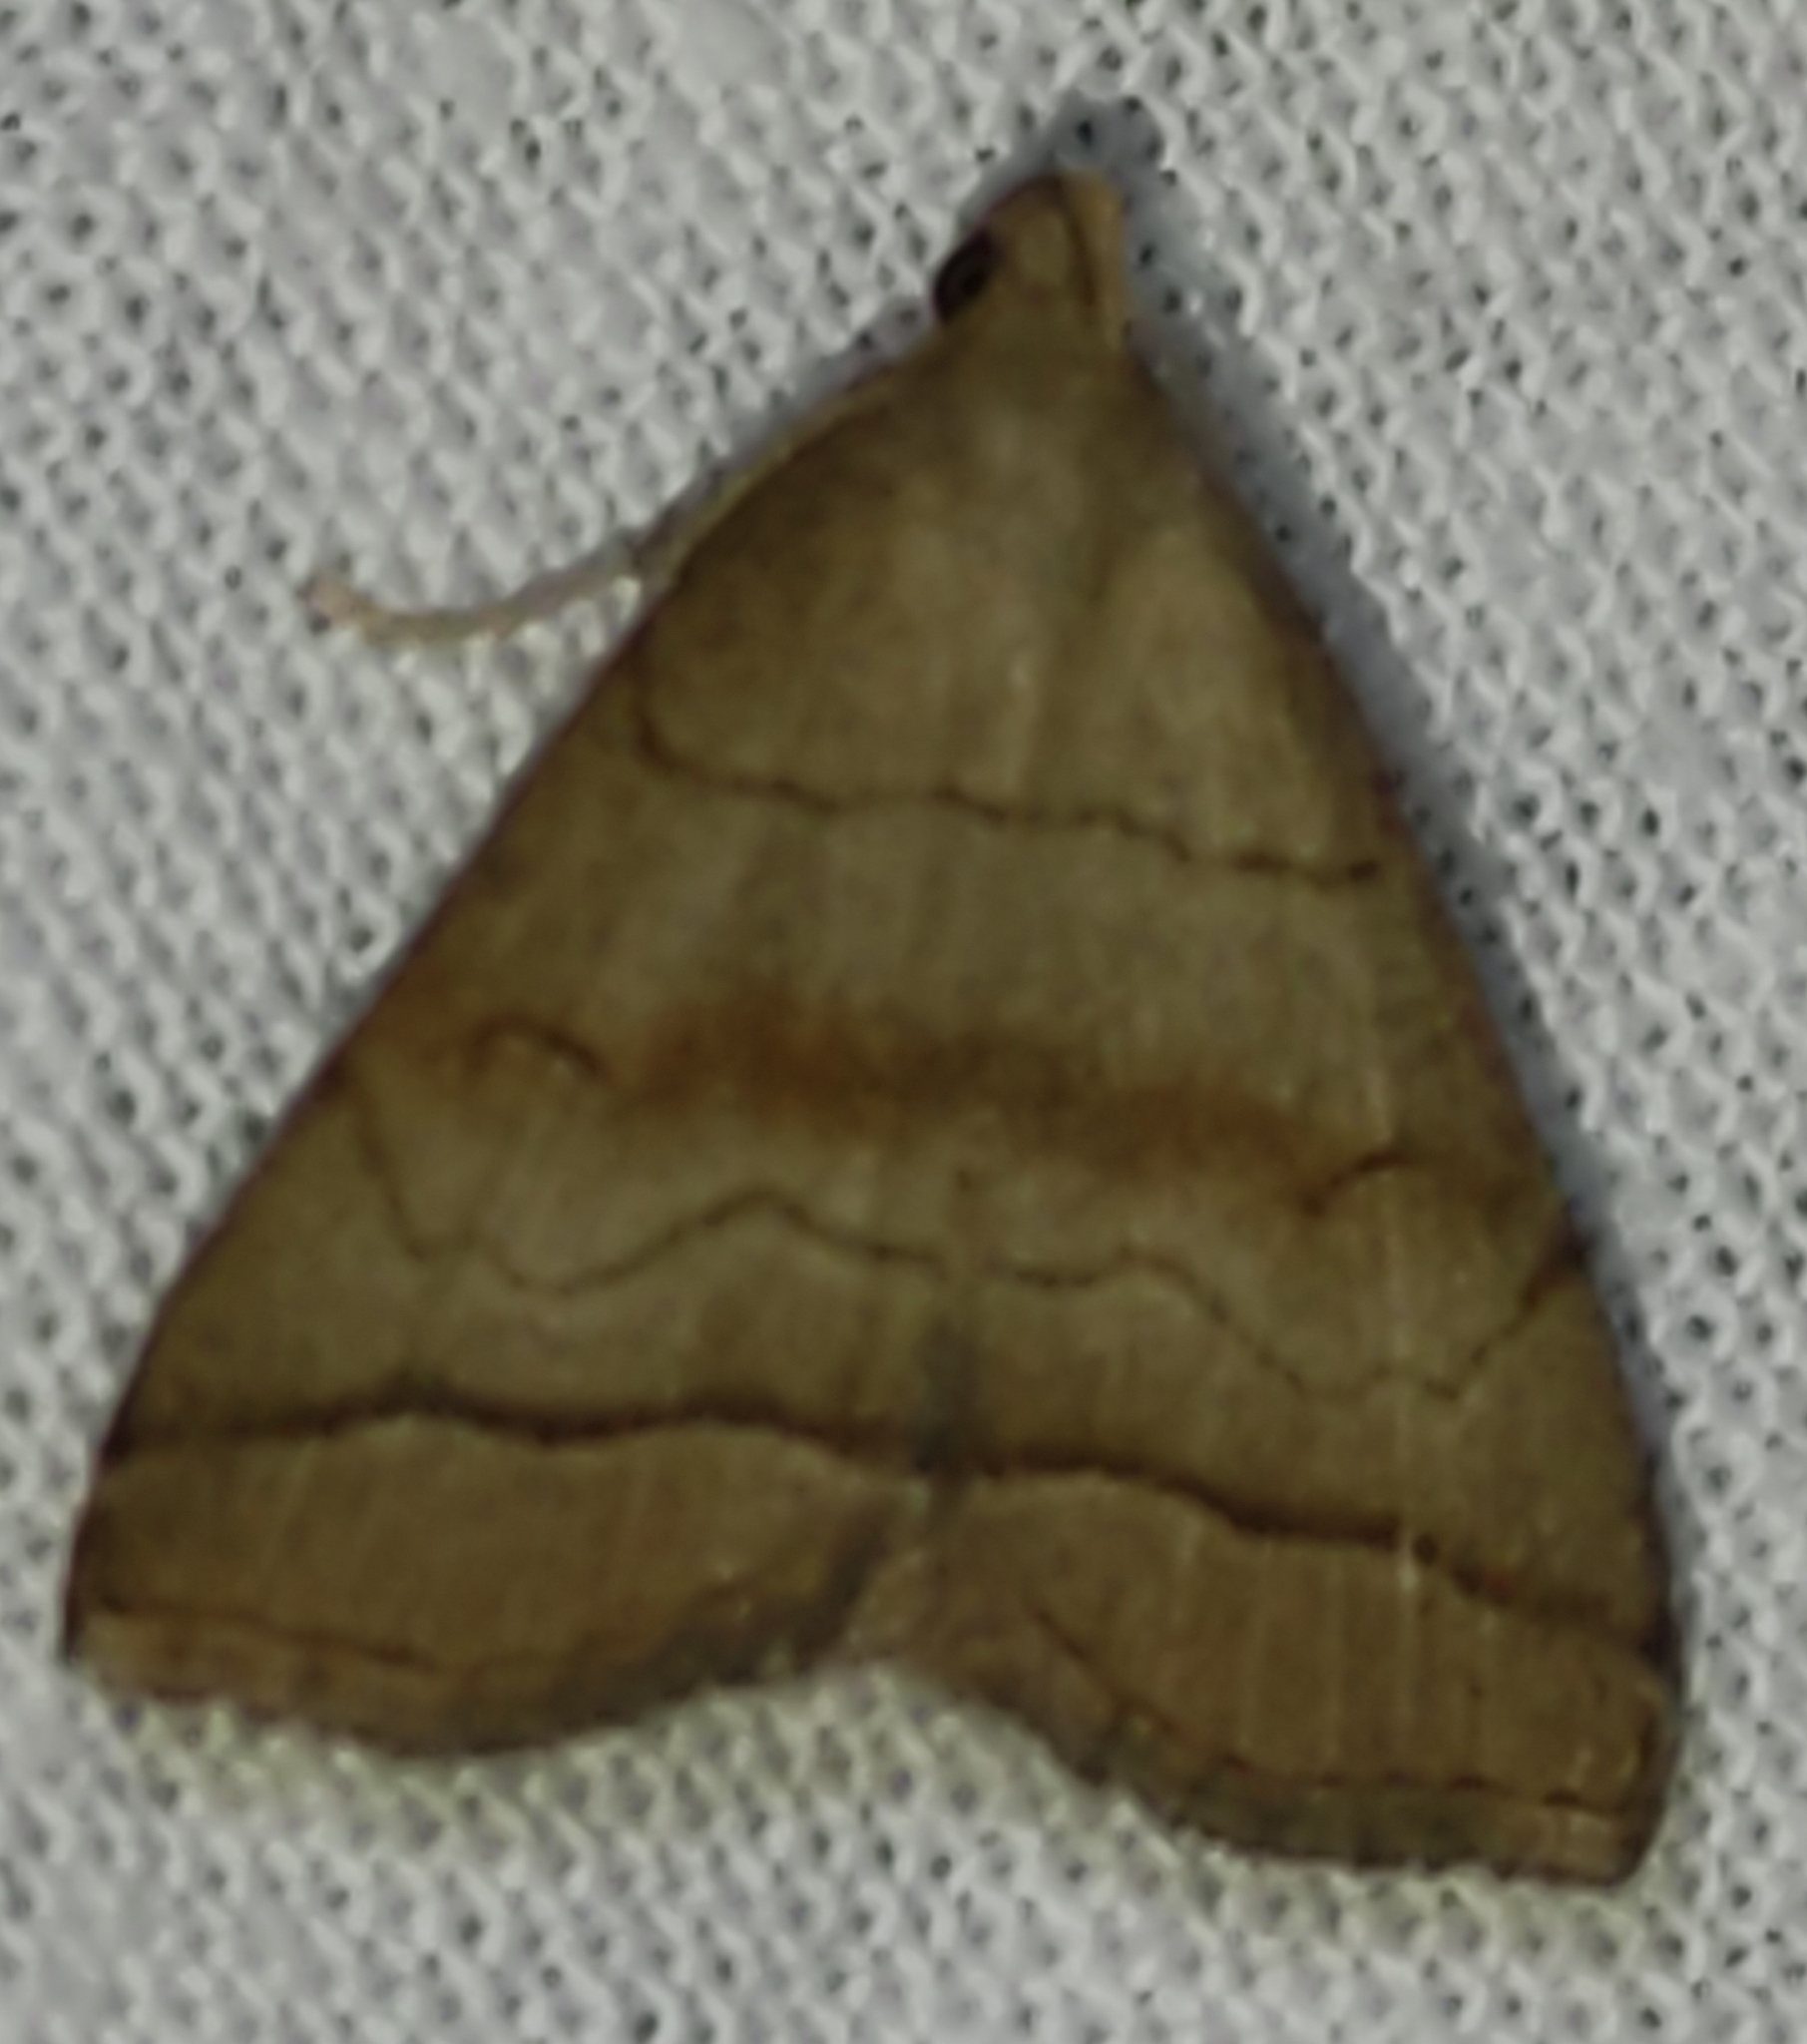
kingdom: Animalia
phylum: Arthropoda
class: Insecta
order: Lepidoptera
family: Erebidae
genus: Herminia
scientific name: Herminia tarsicrinalis
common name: Shaded fan-foot
